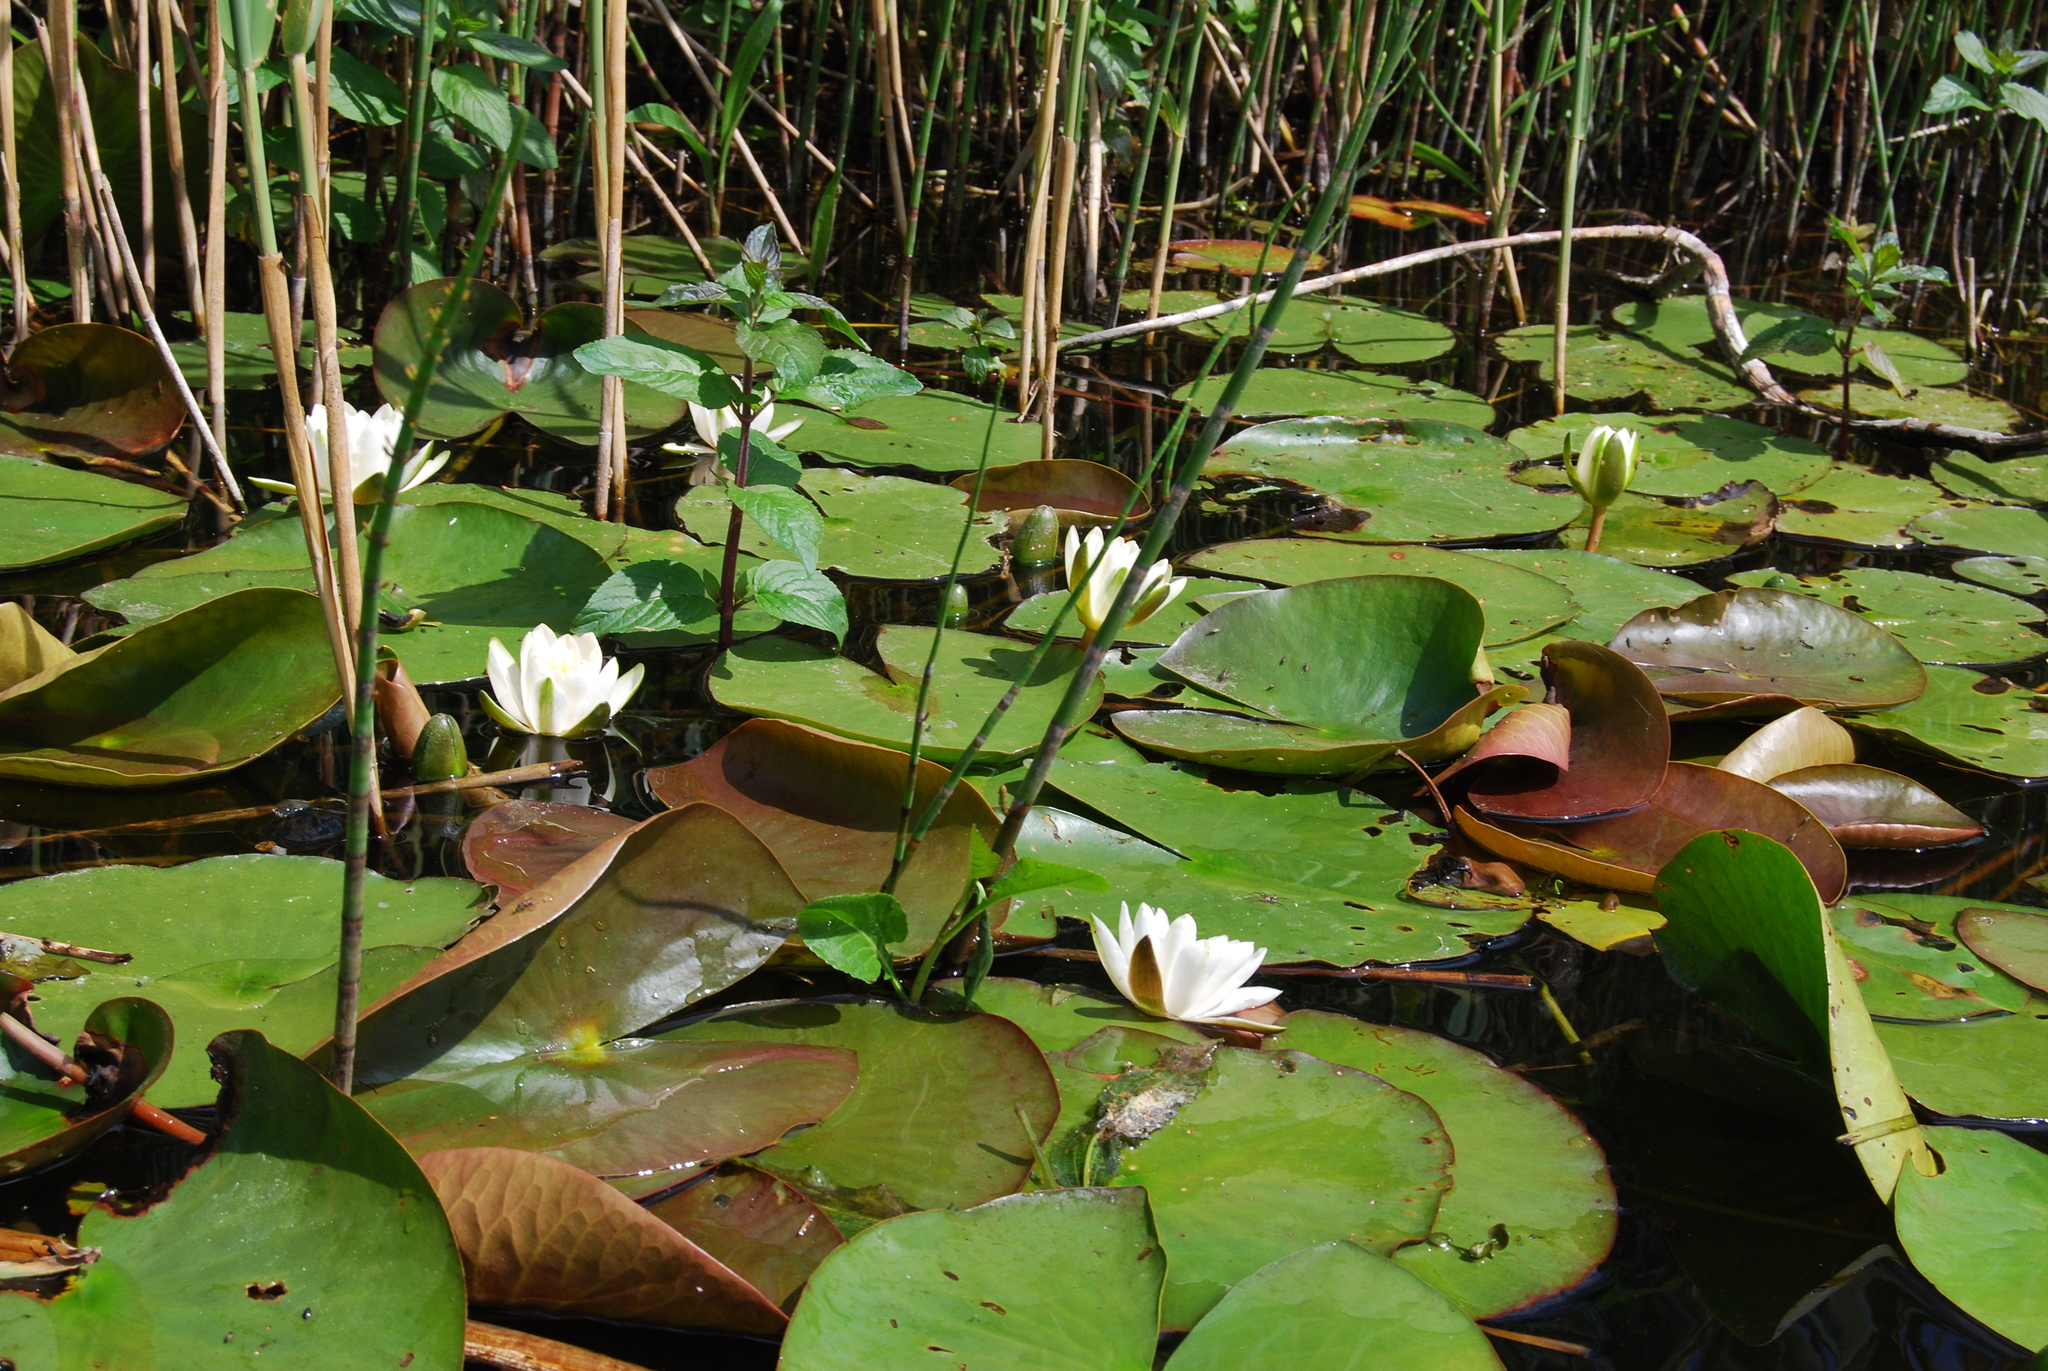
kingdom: Plantae
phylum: Tracheophyta
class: Magnoliopsida
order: Nymphaeales
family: Nymphaeaceae
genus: Nymphaea
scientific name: Nymphaea candida
